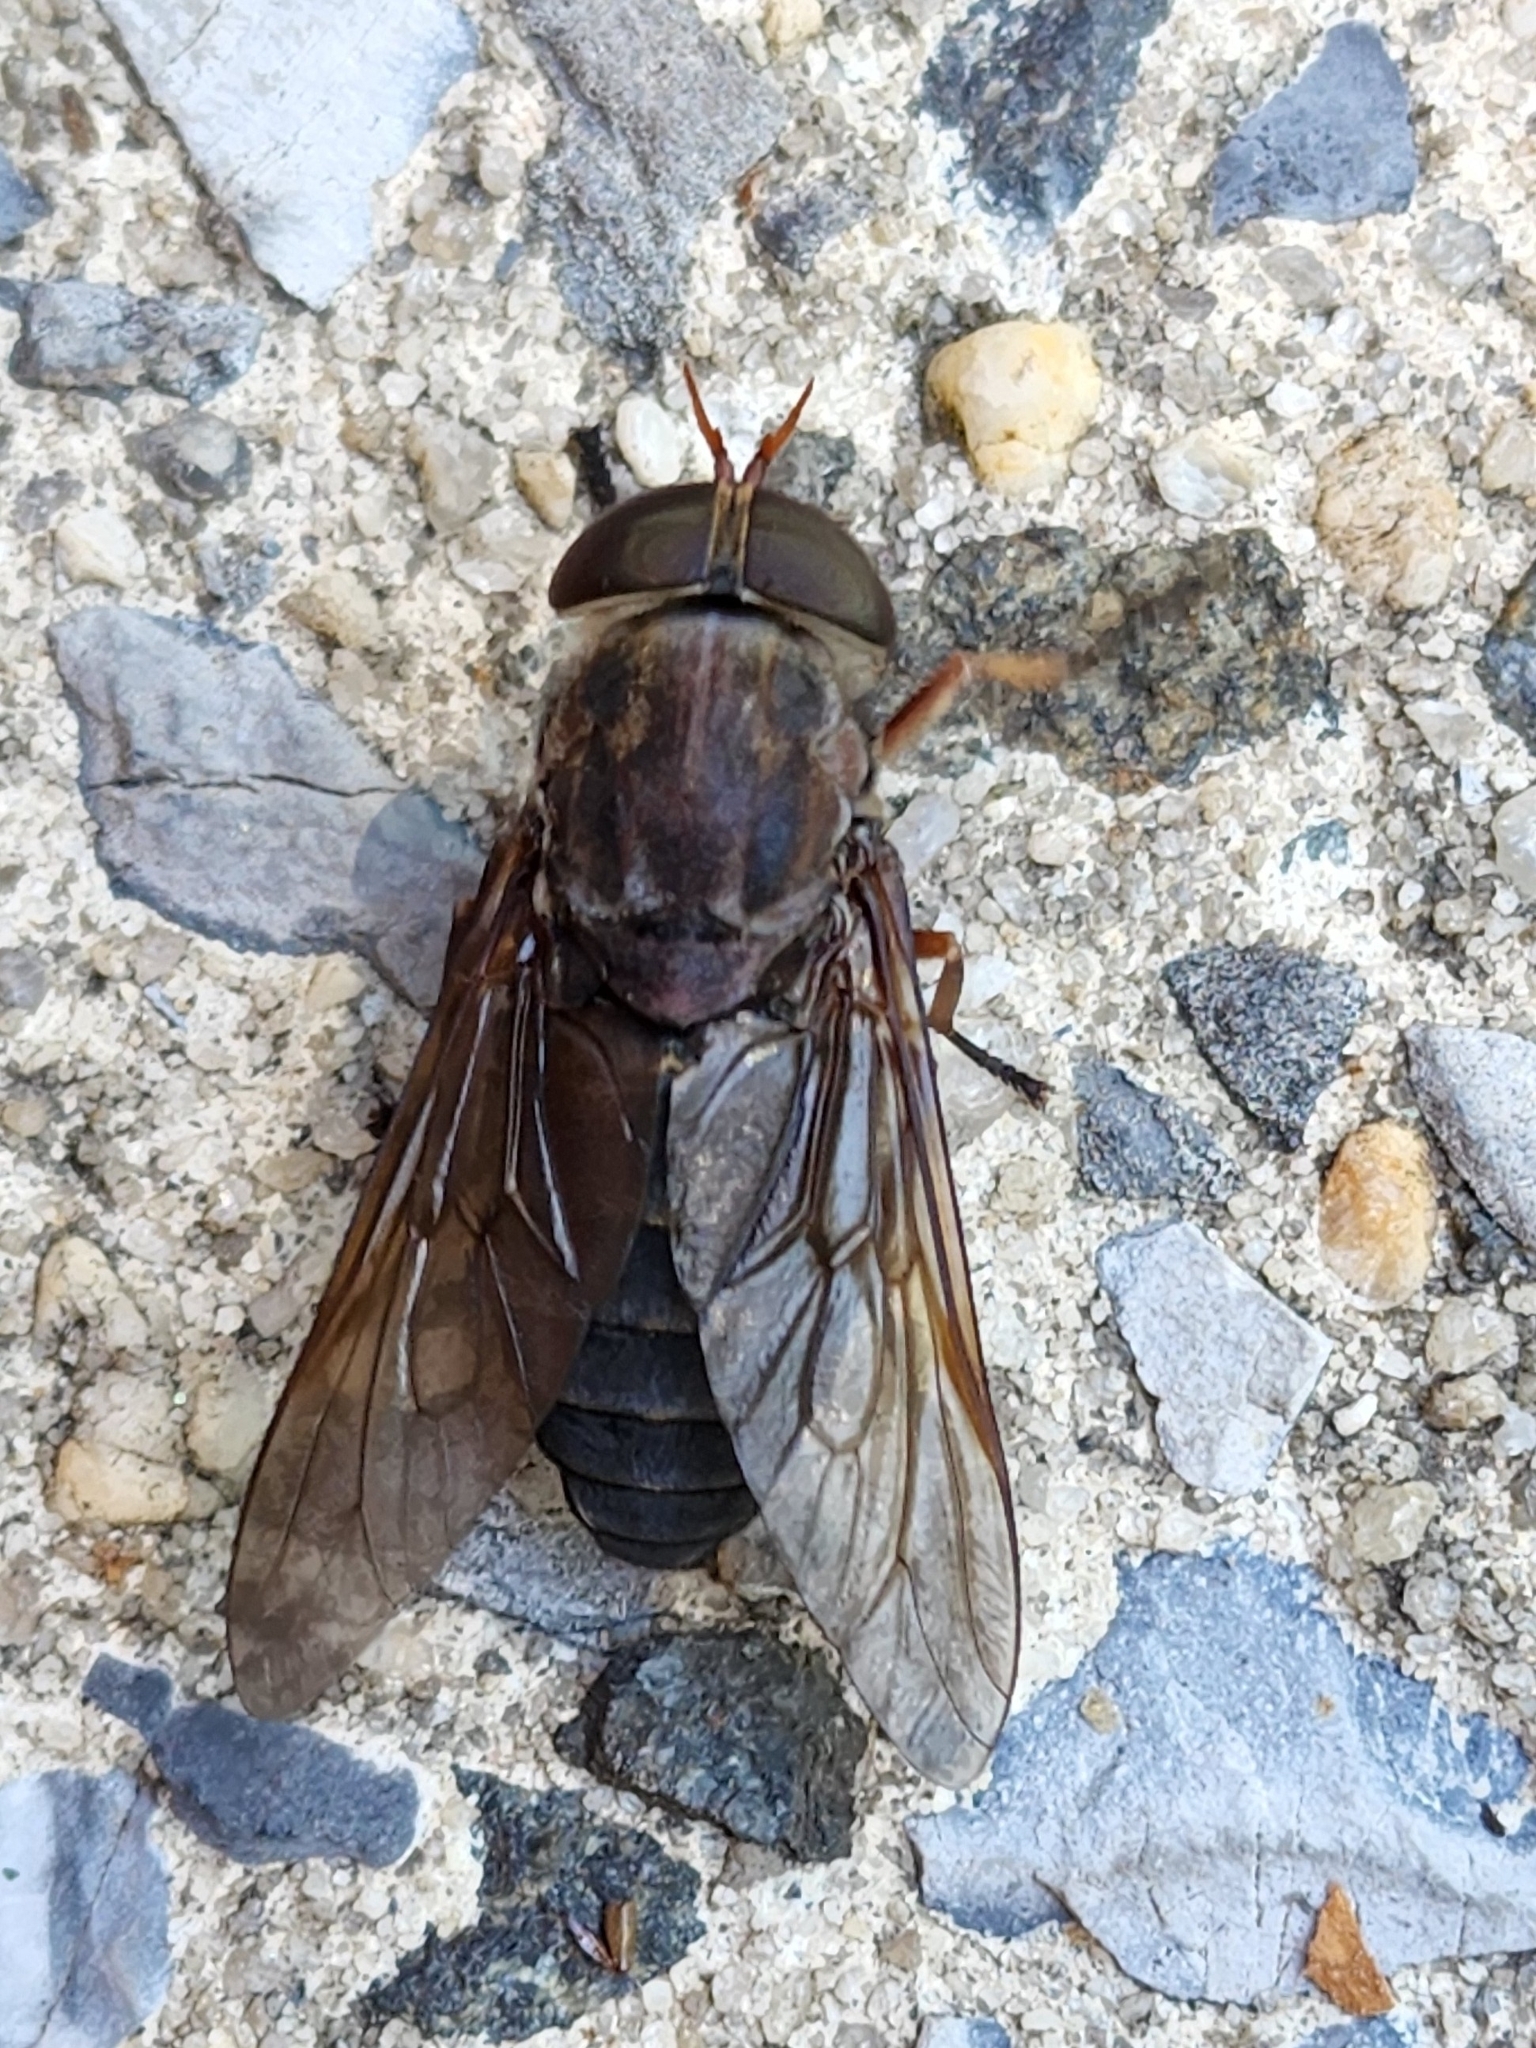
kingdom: Animalia
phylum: Arthropoda
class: Insecta
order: Diptera
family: Tabanidae
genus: Tabanus
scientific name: Tabanus calens
